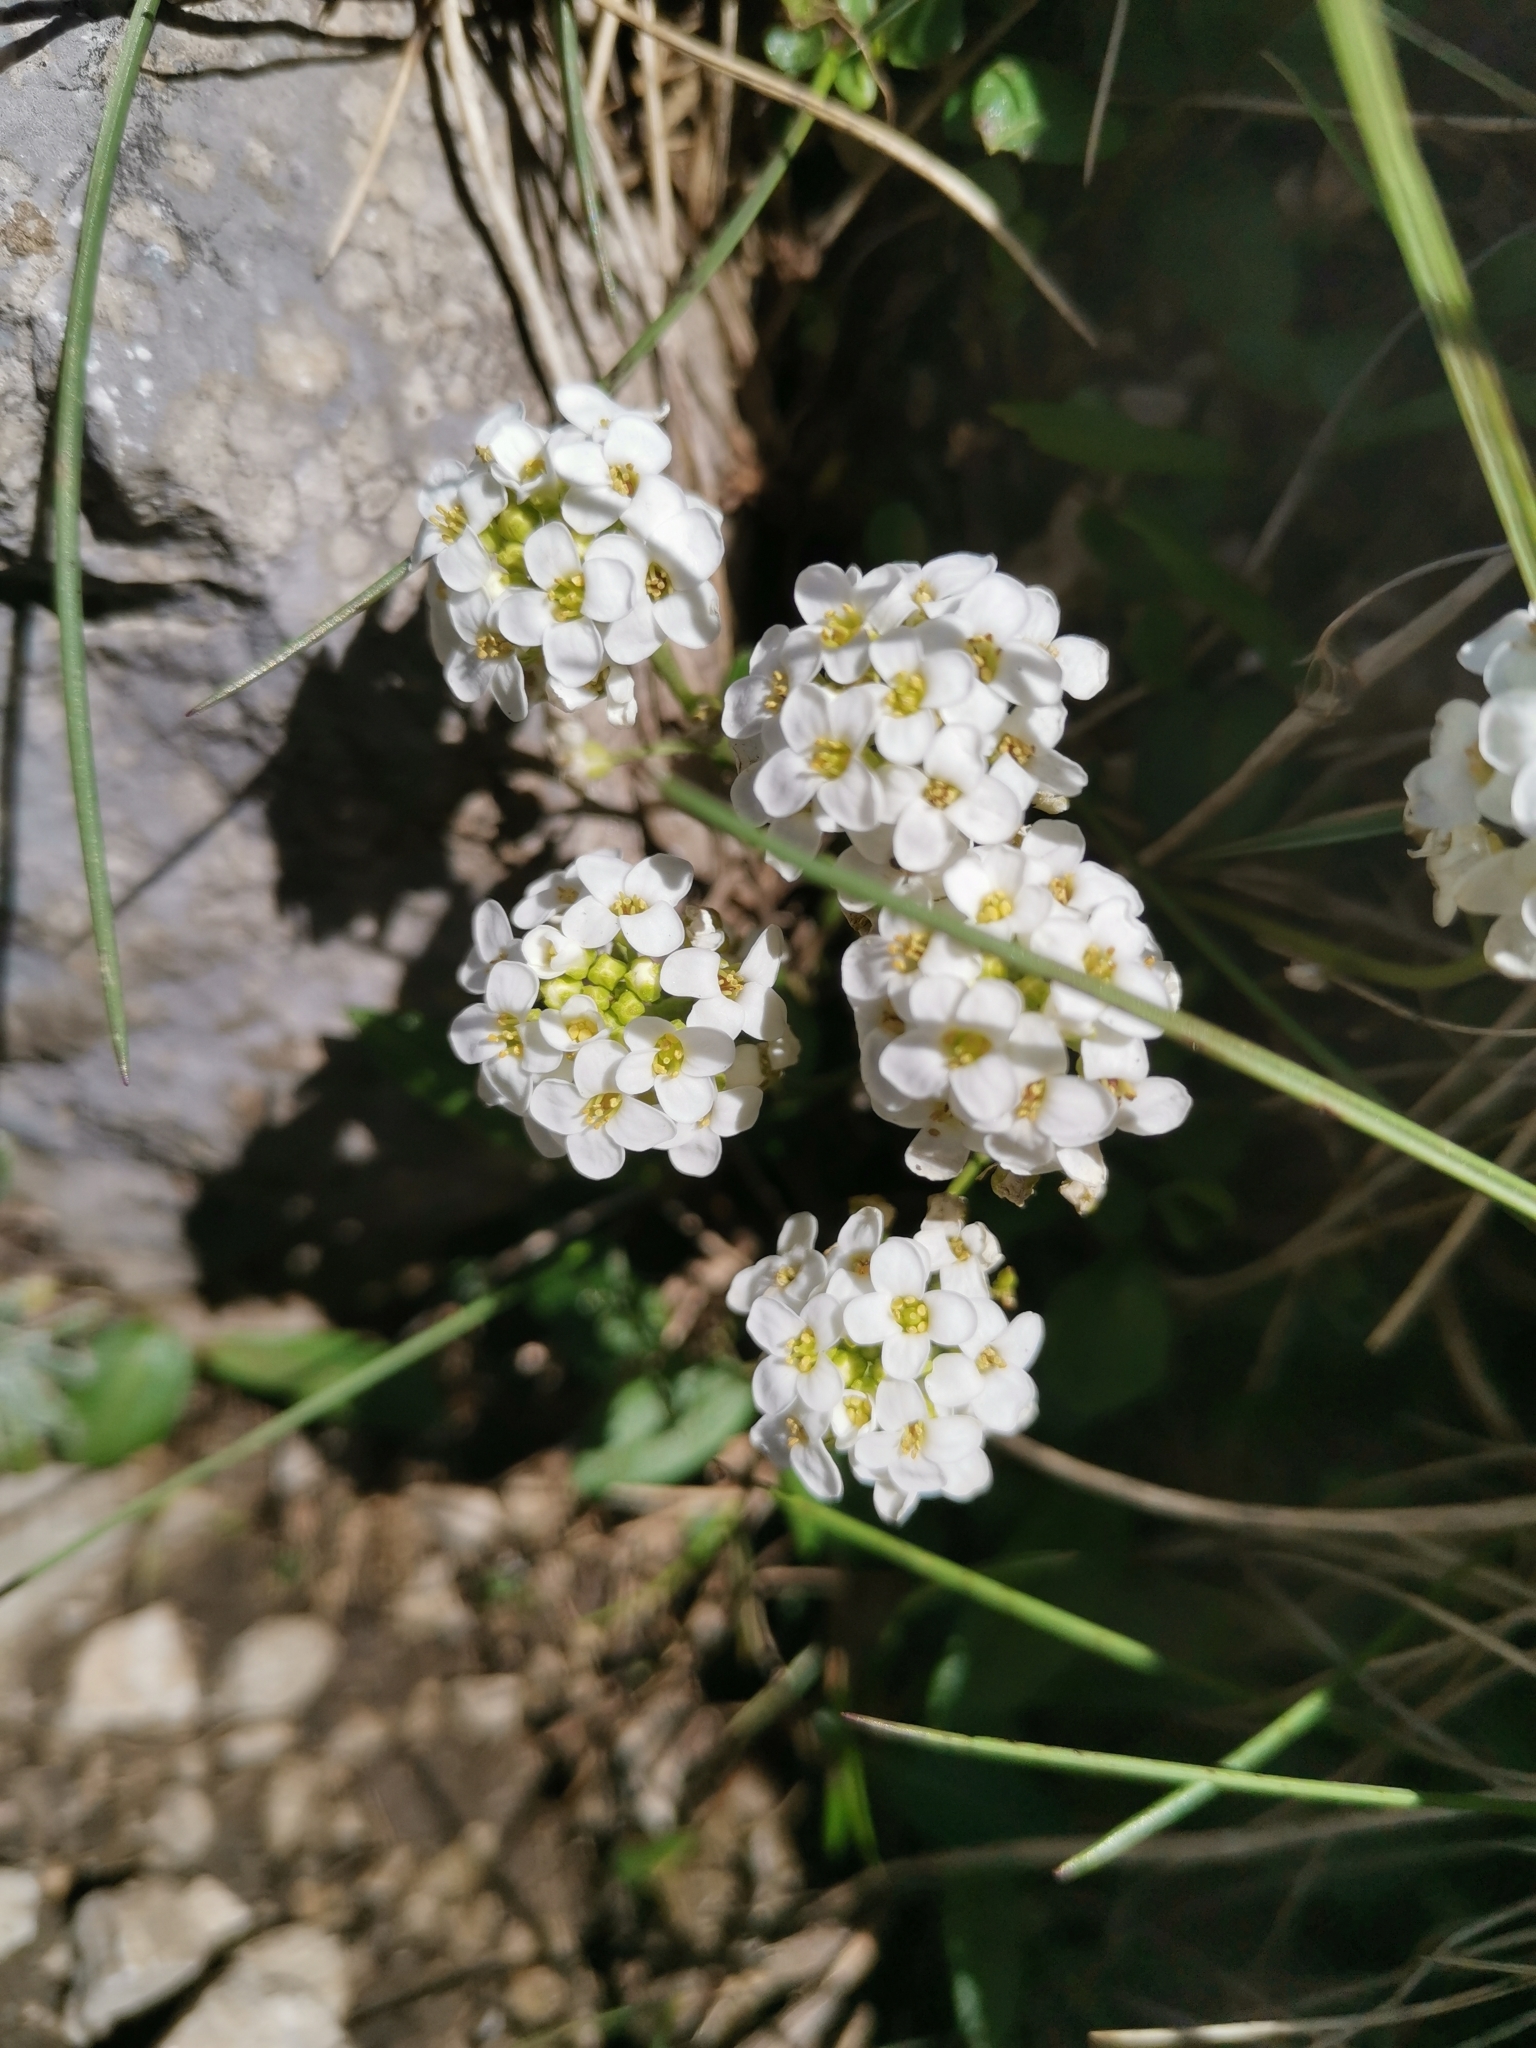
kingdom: Plantae
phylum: Tracheophyta
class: Magnoliopsida
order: Brassicales
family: Brassicaceae
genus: Hornungia
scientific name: Hornungia alpina
